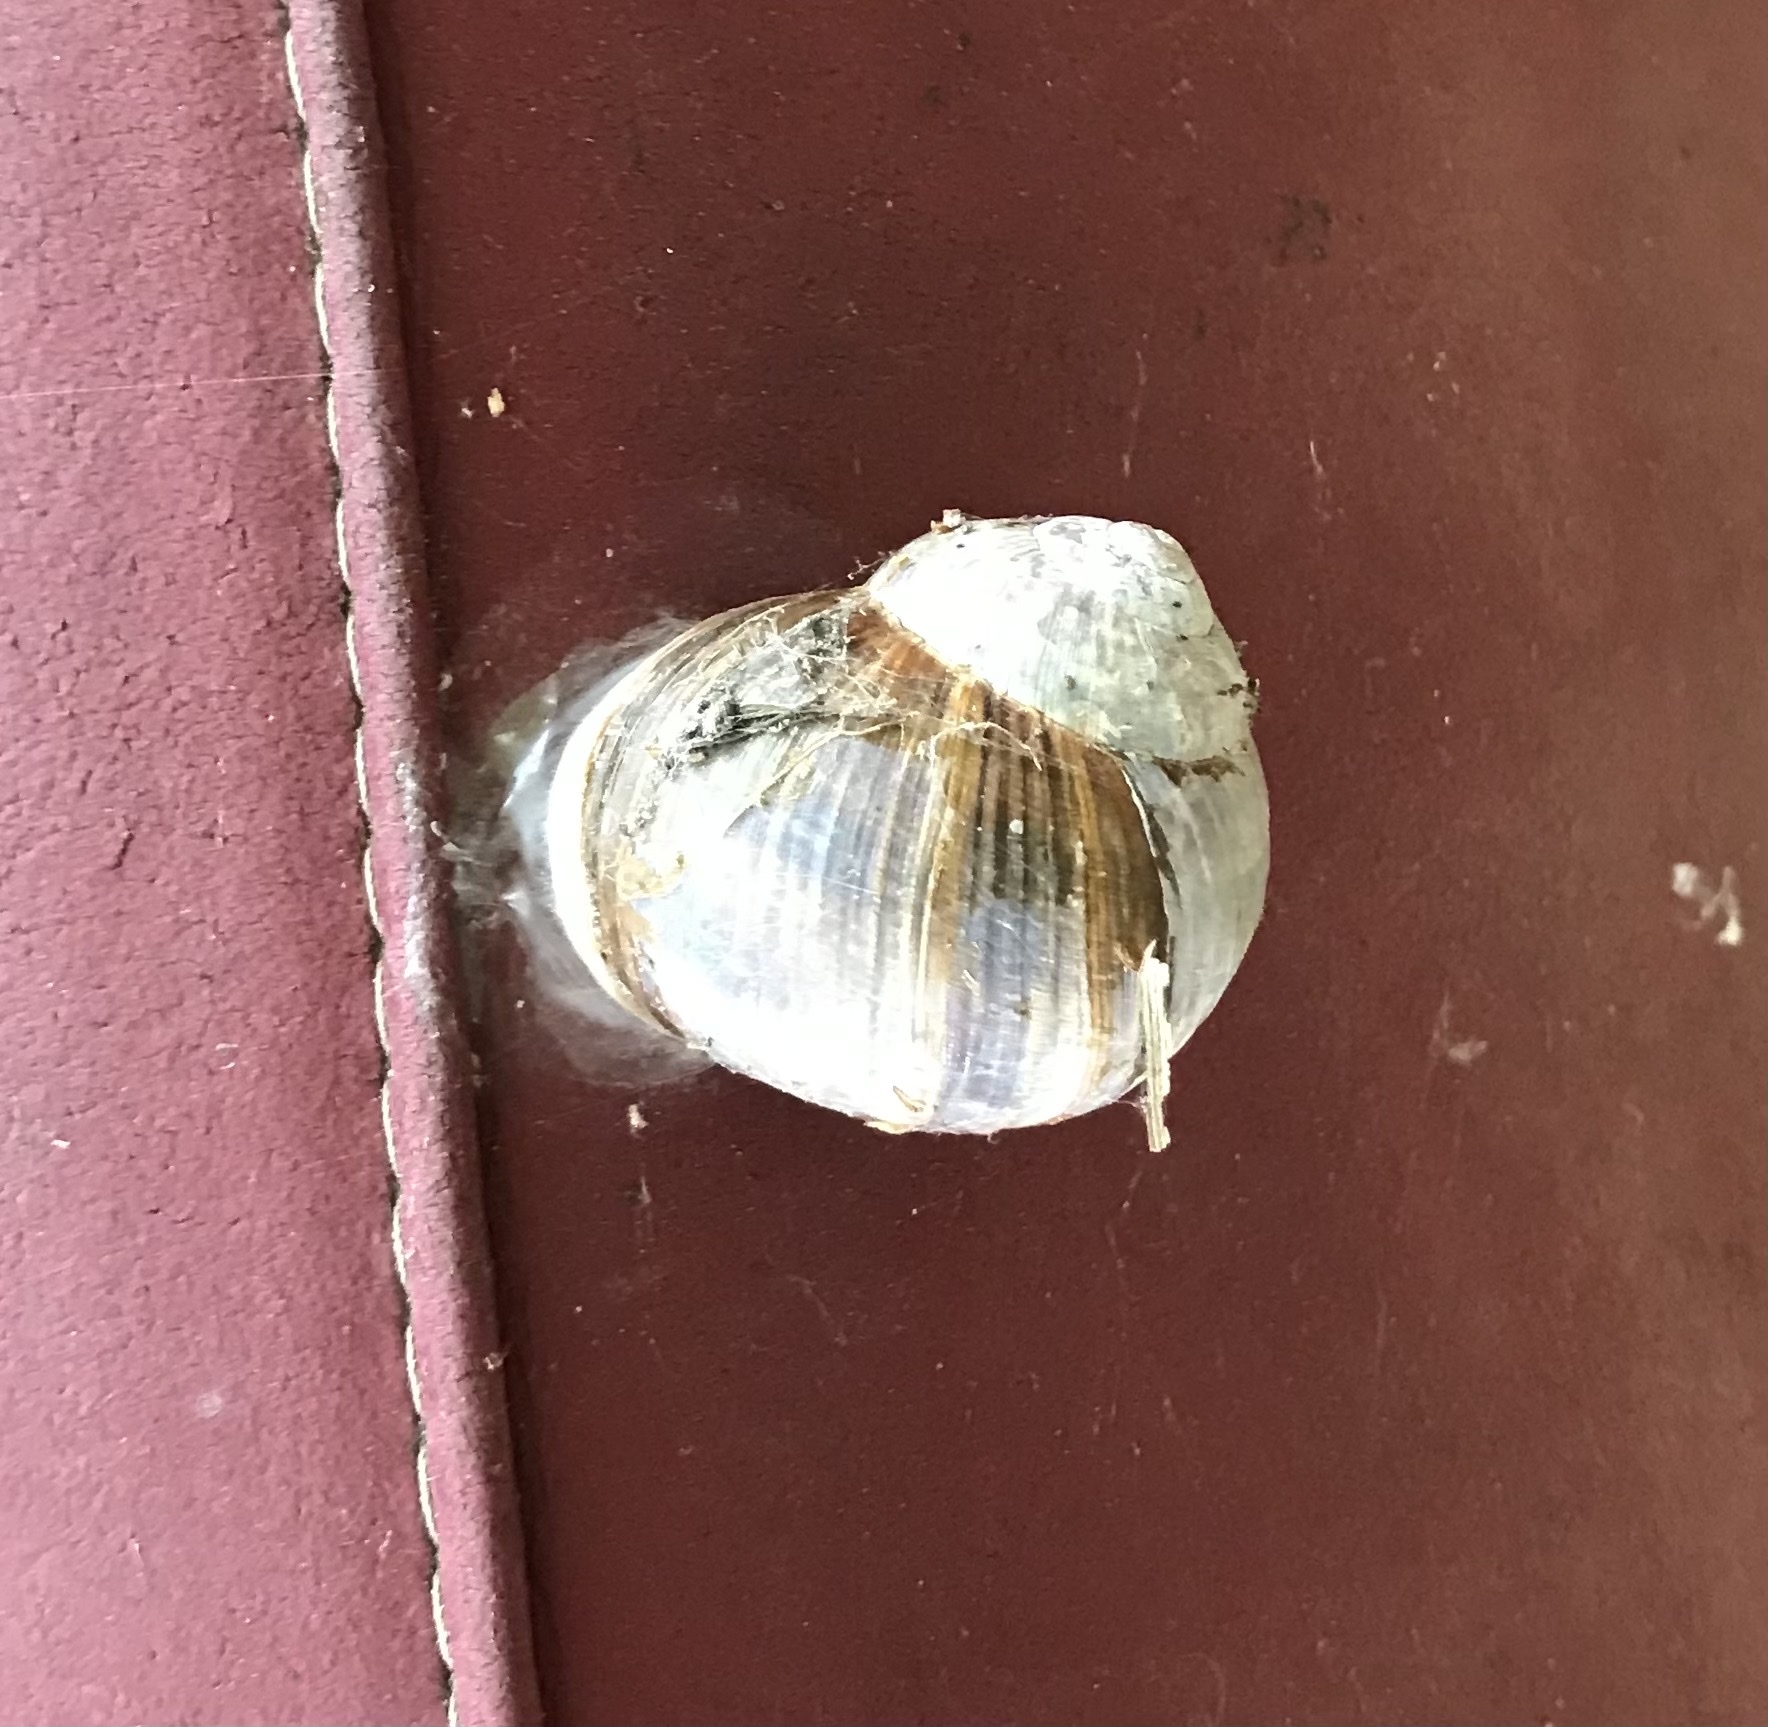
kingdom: Animalia
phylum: Mollusca
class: Gastropoda
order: Stylommatophora
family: Helicidae
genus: Helix
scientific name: Helix pomatia
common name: Roman snail
